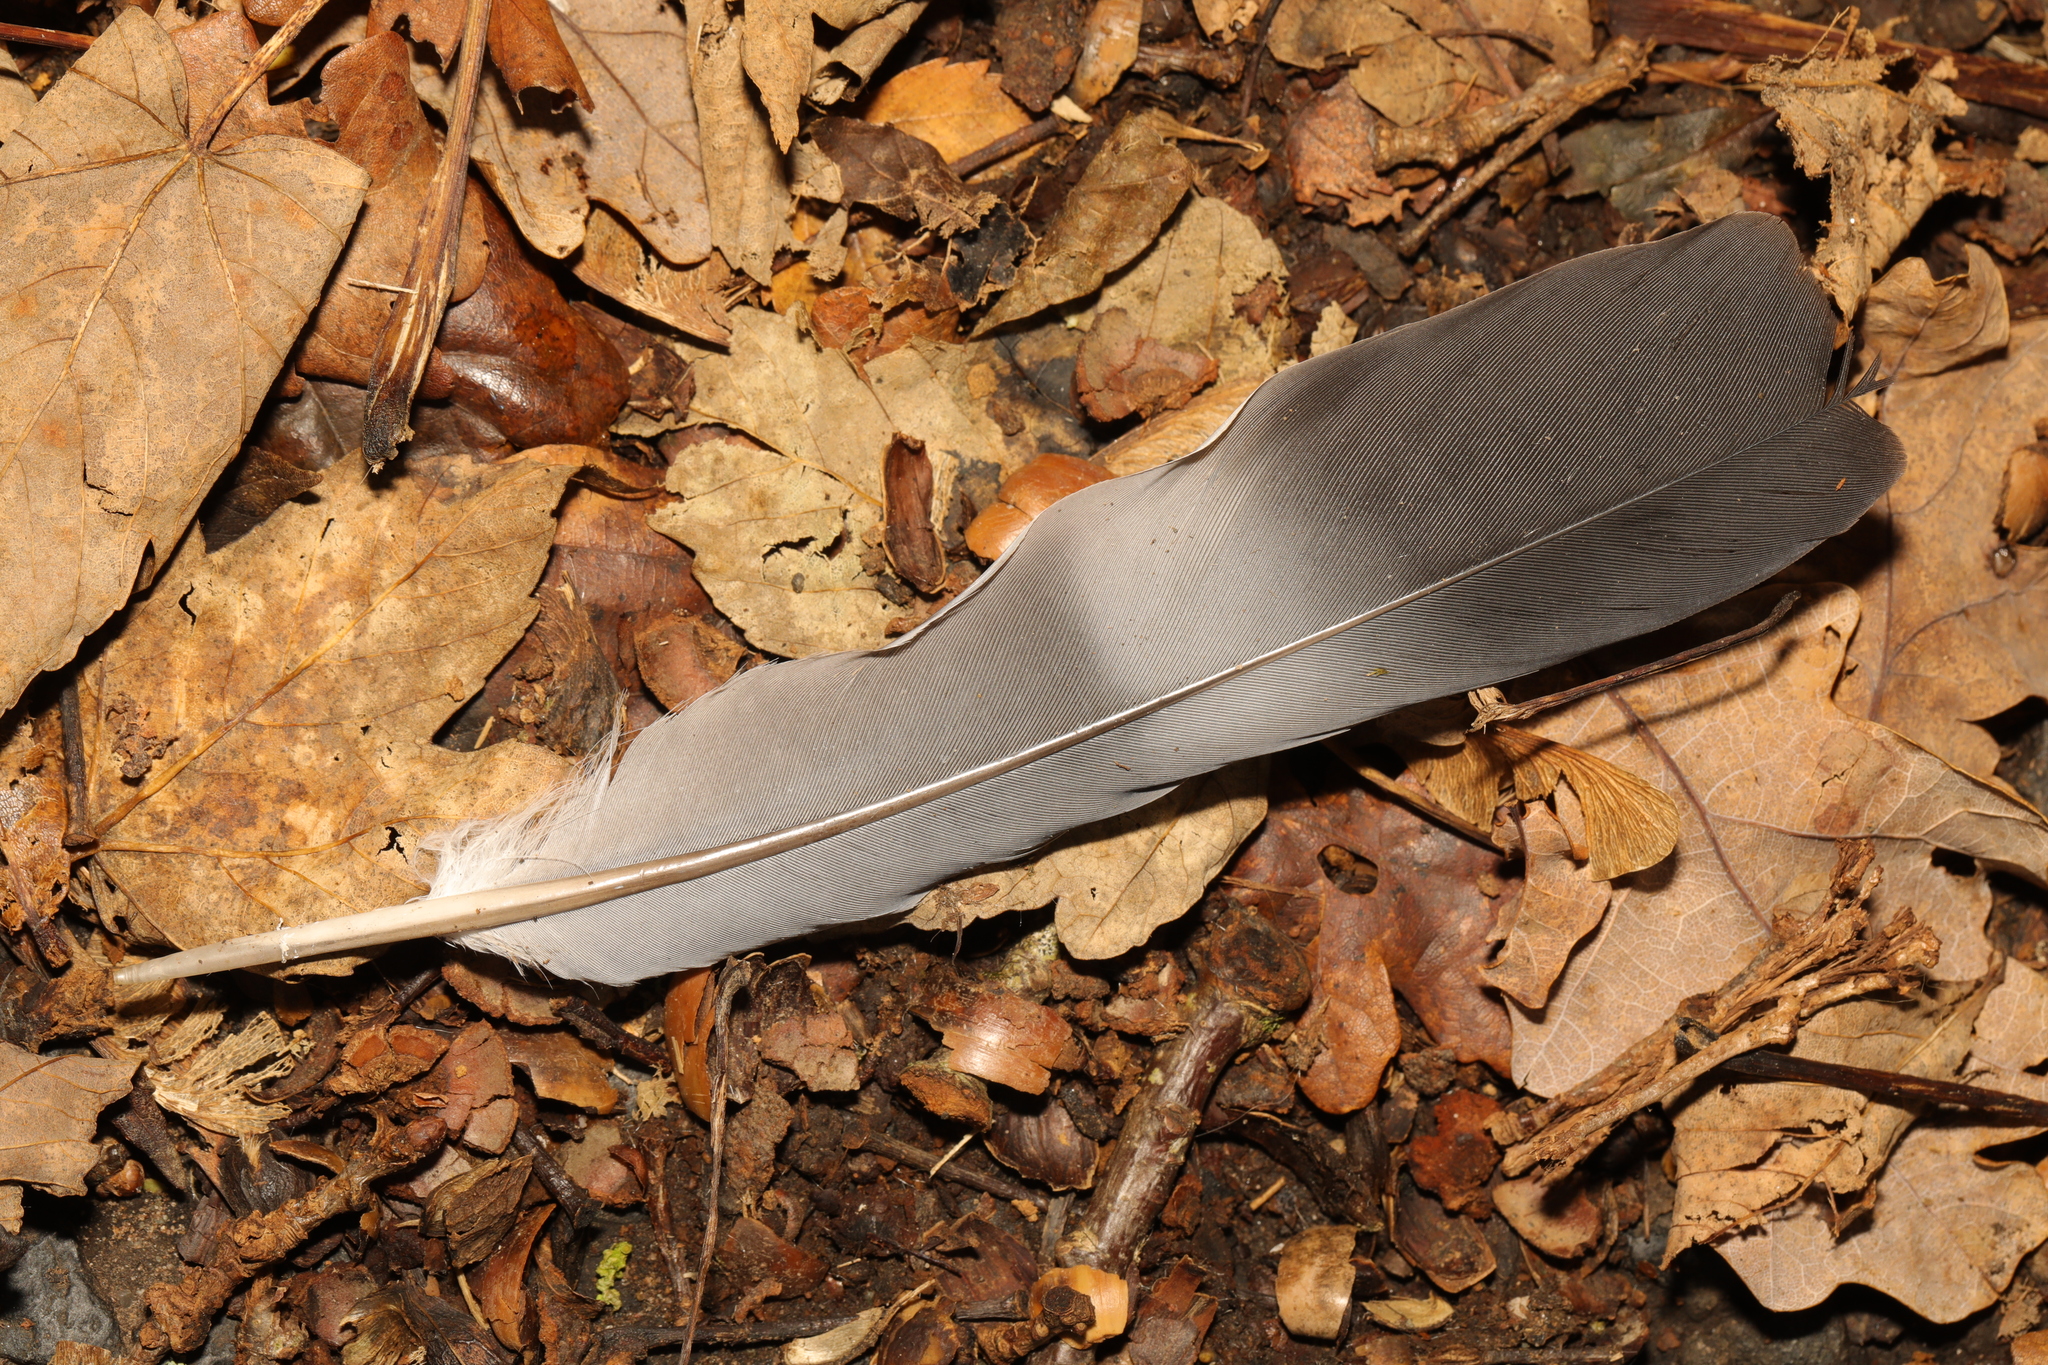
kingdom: Animalia
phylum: Chordata
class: Aves
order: Columbiformes
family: Columbidae
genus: Columba
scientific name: Columba palumbus
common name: Common wood pigeon
